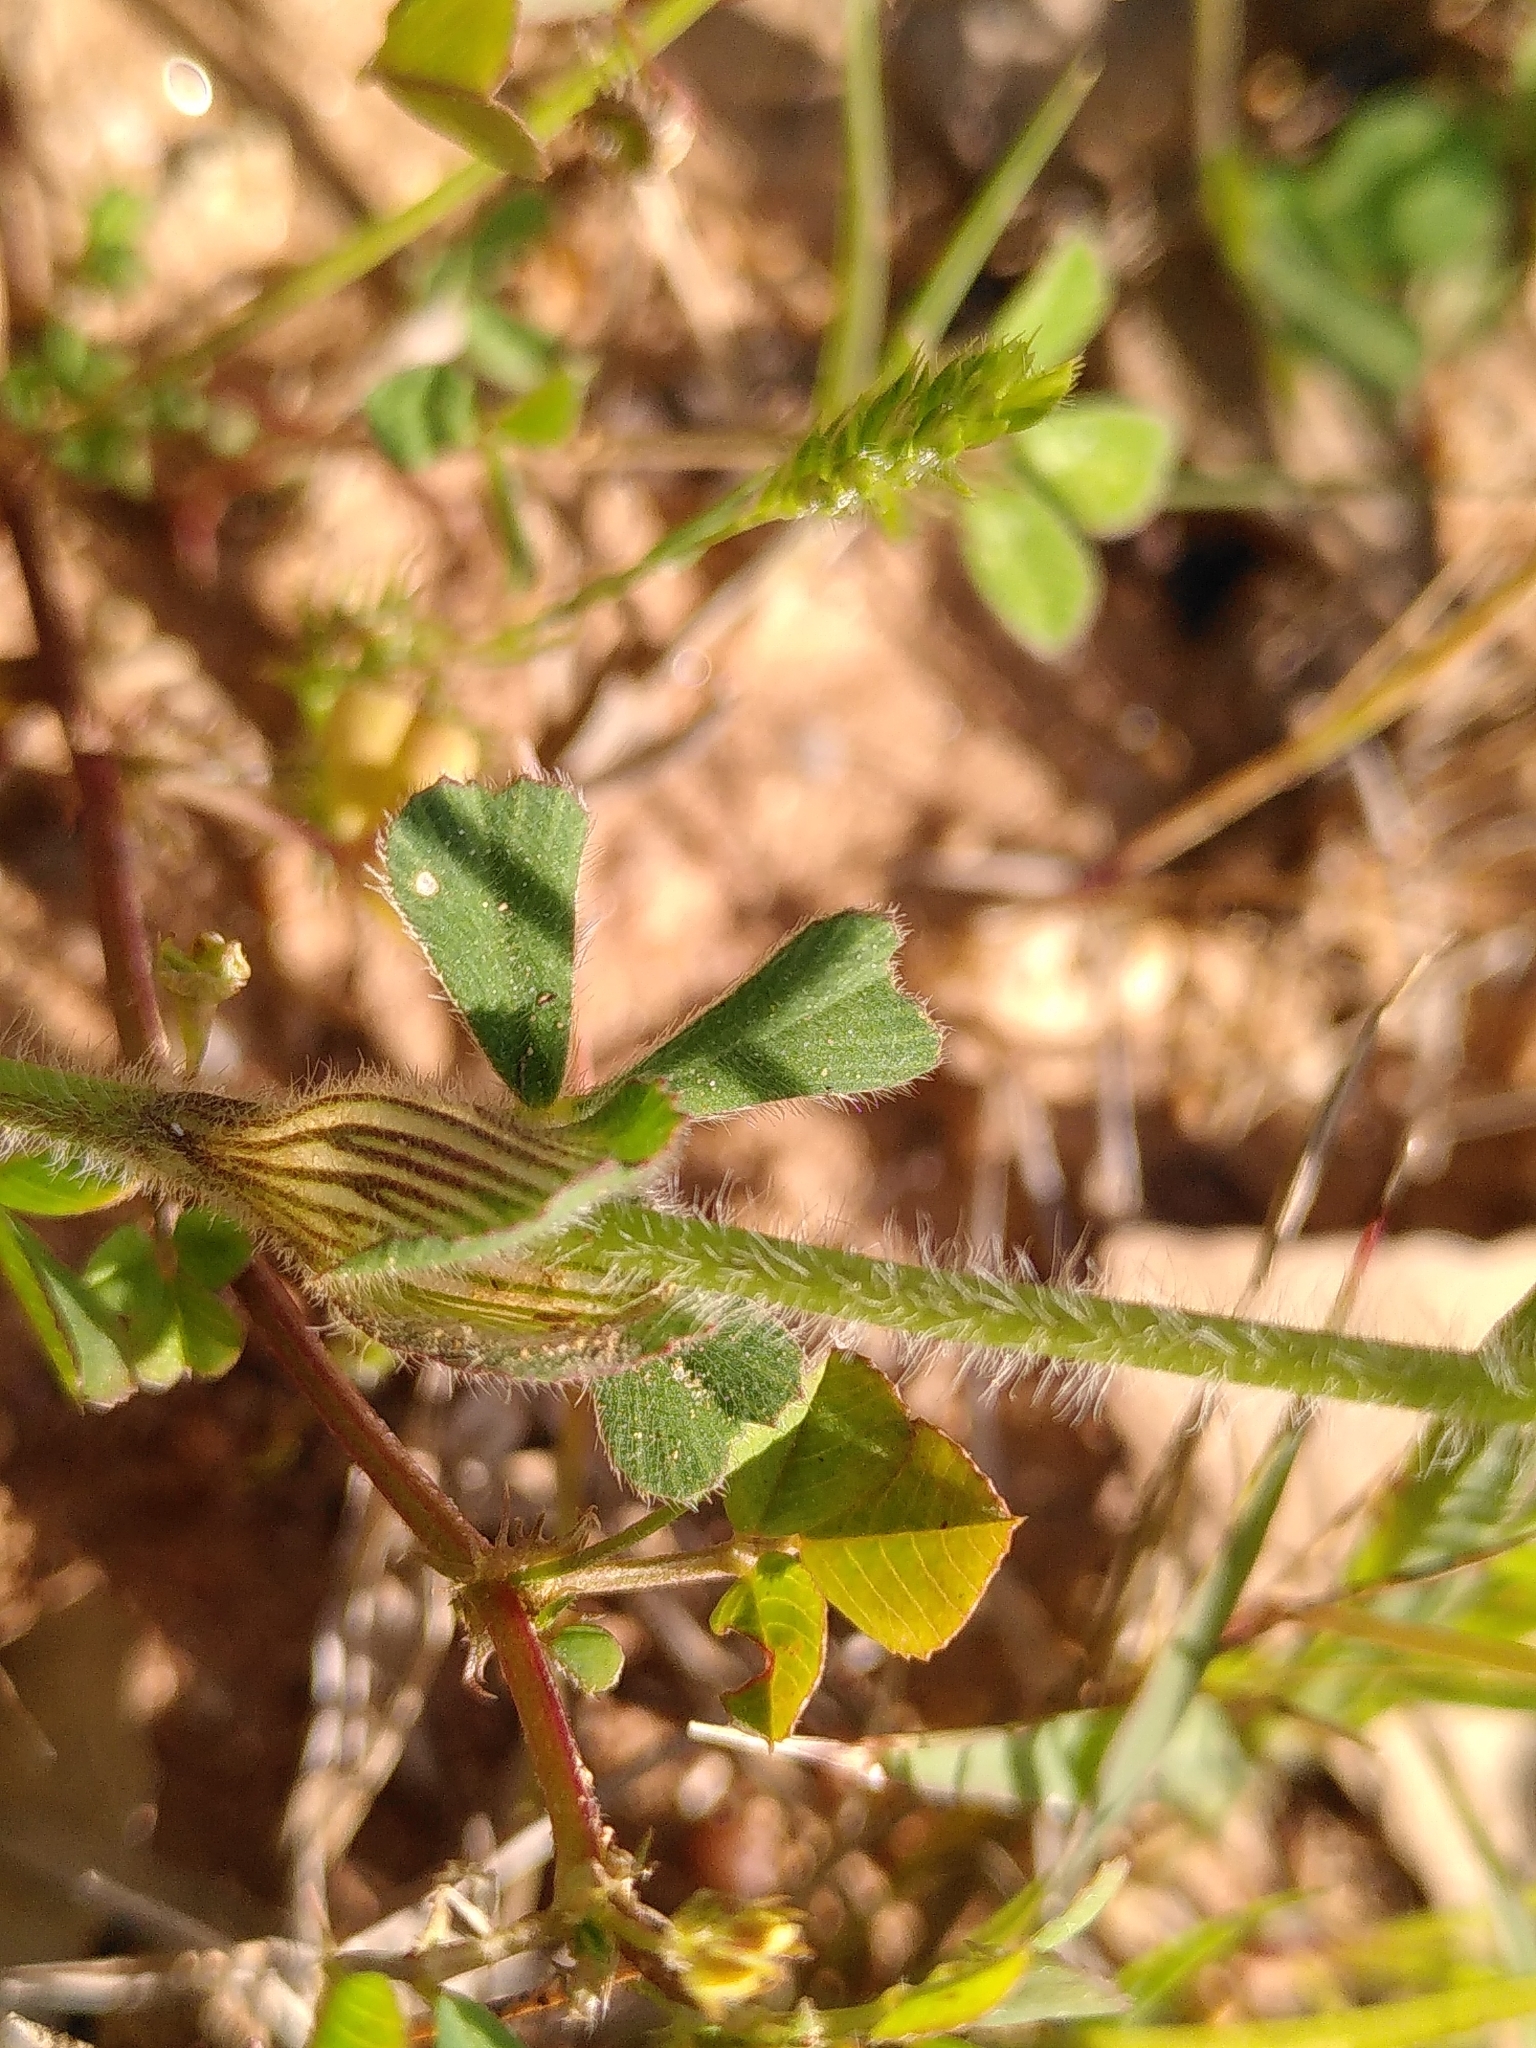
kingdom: Plantae
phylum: Tracheophyta
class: Magnoliopsida
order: Fabales
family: Fabaceae
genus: Trifolium
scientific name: Trifolium stellatum
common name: Starry clover
